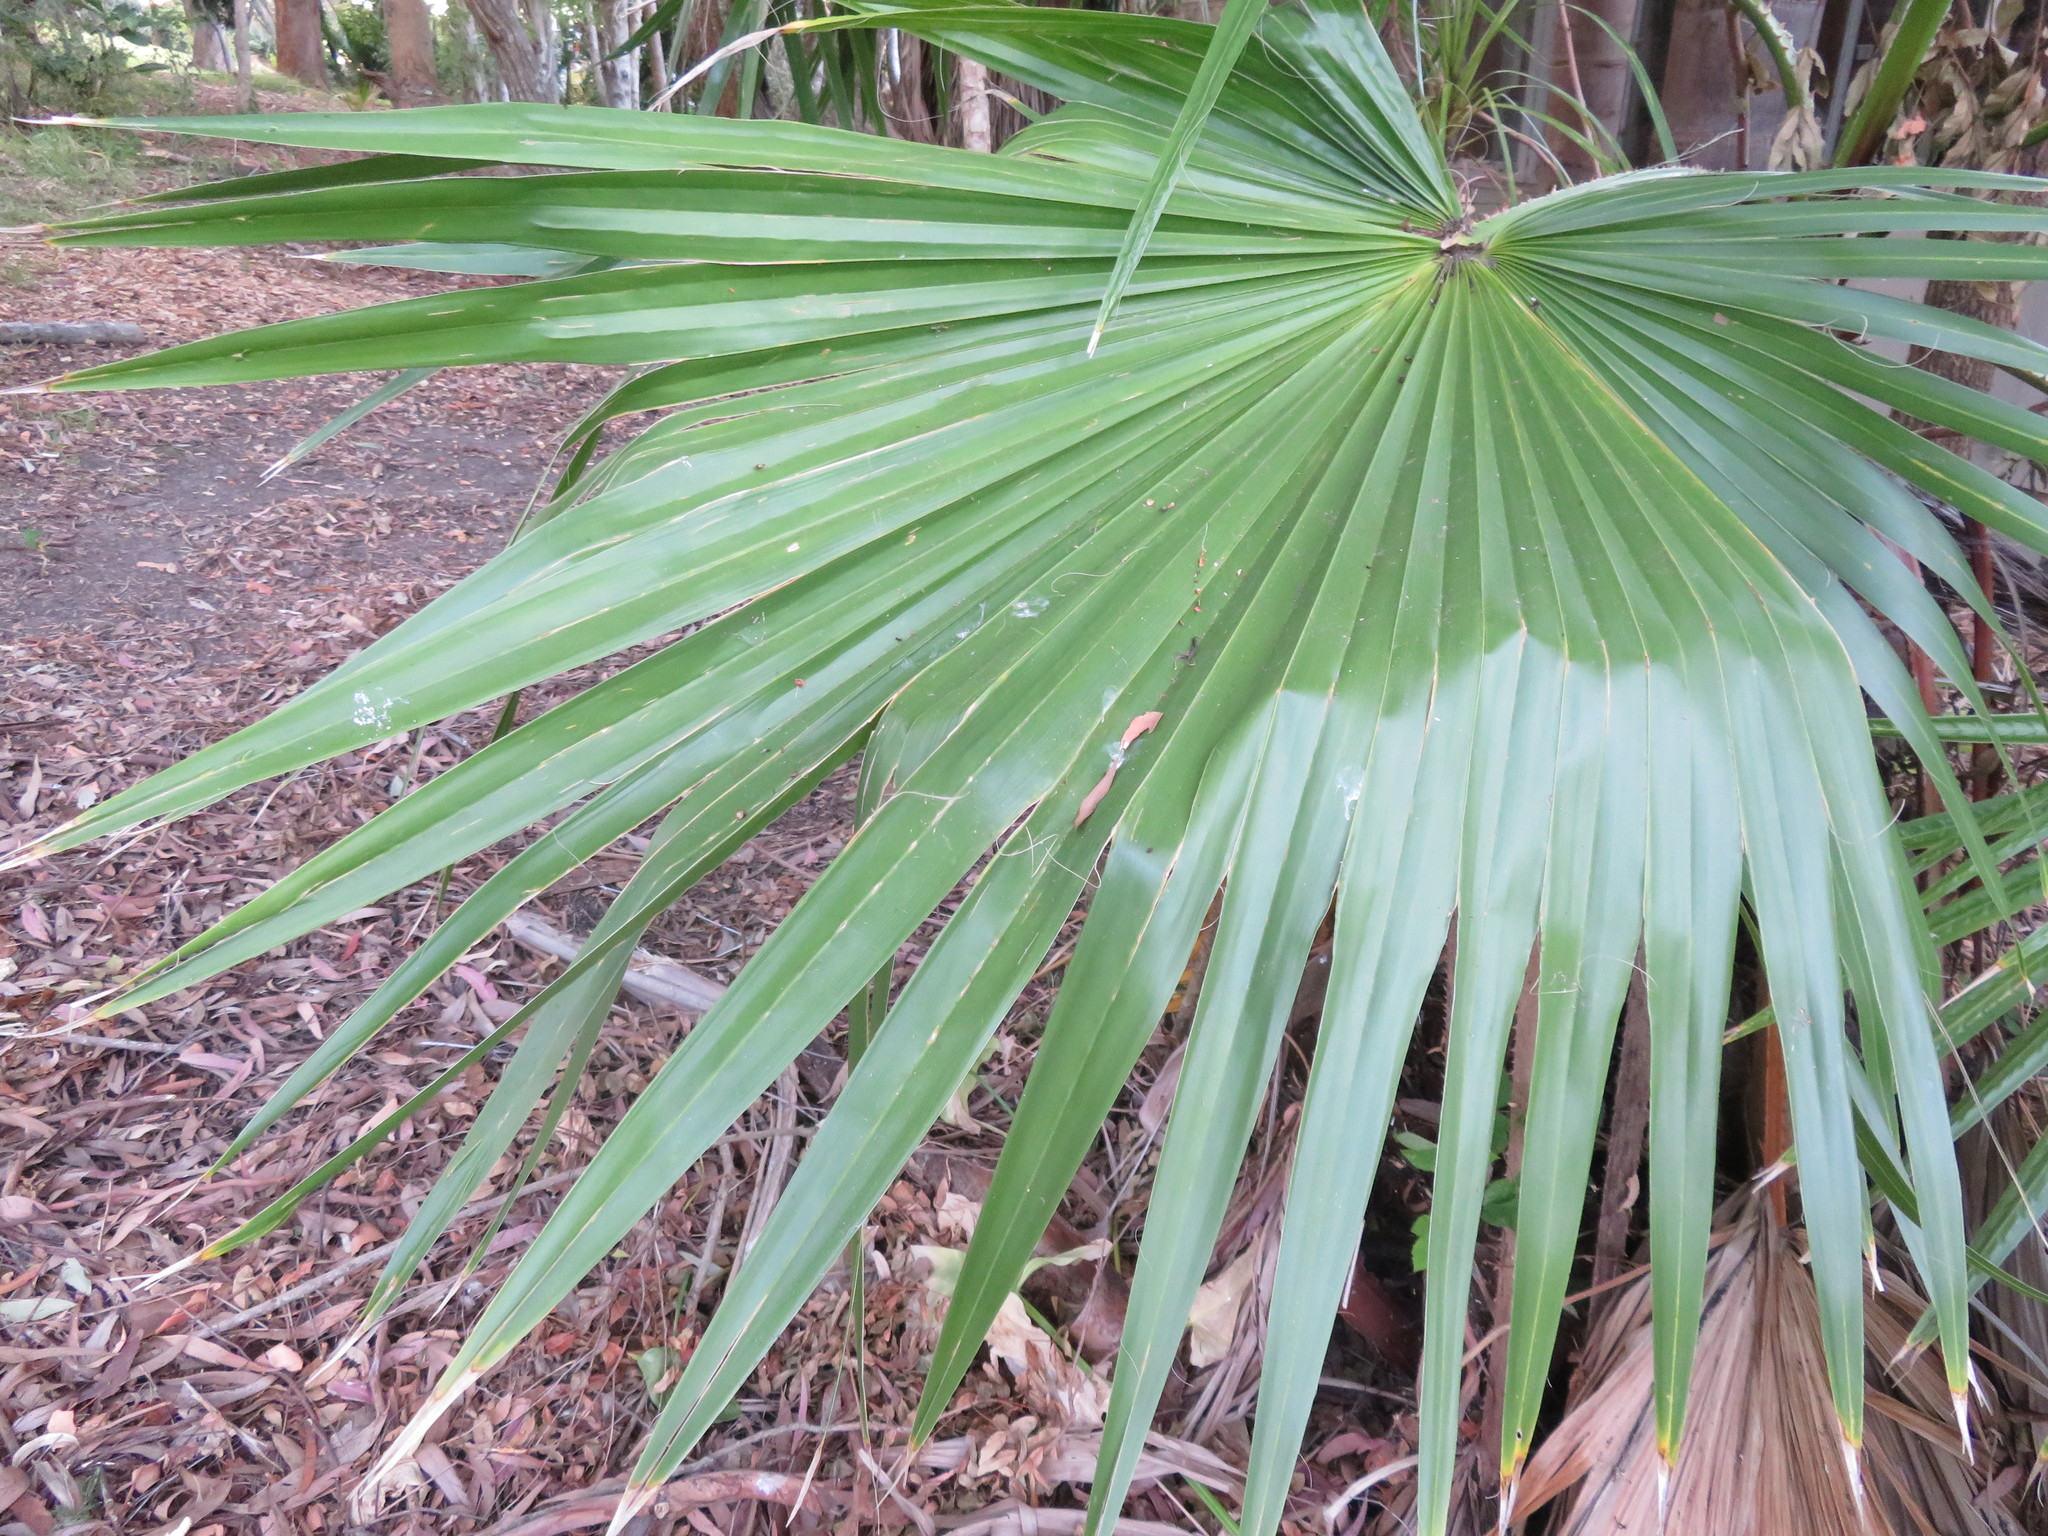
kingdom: Plantae
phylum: Tracheophyta
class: Liliopsida
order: Arecales
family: Arecaceae
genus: Washingtonia
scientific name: Washingtonia robusta
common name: Mexican fan palm
